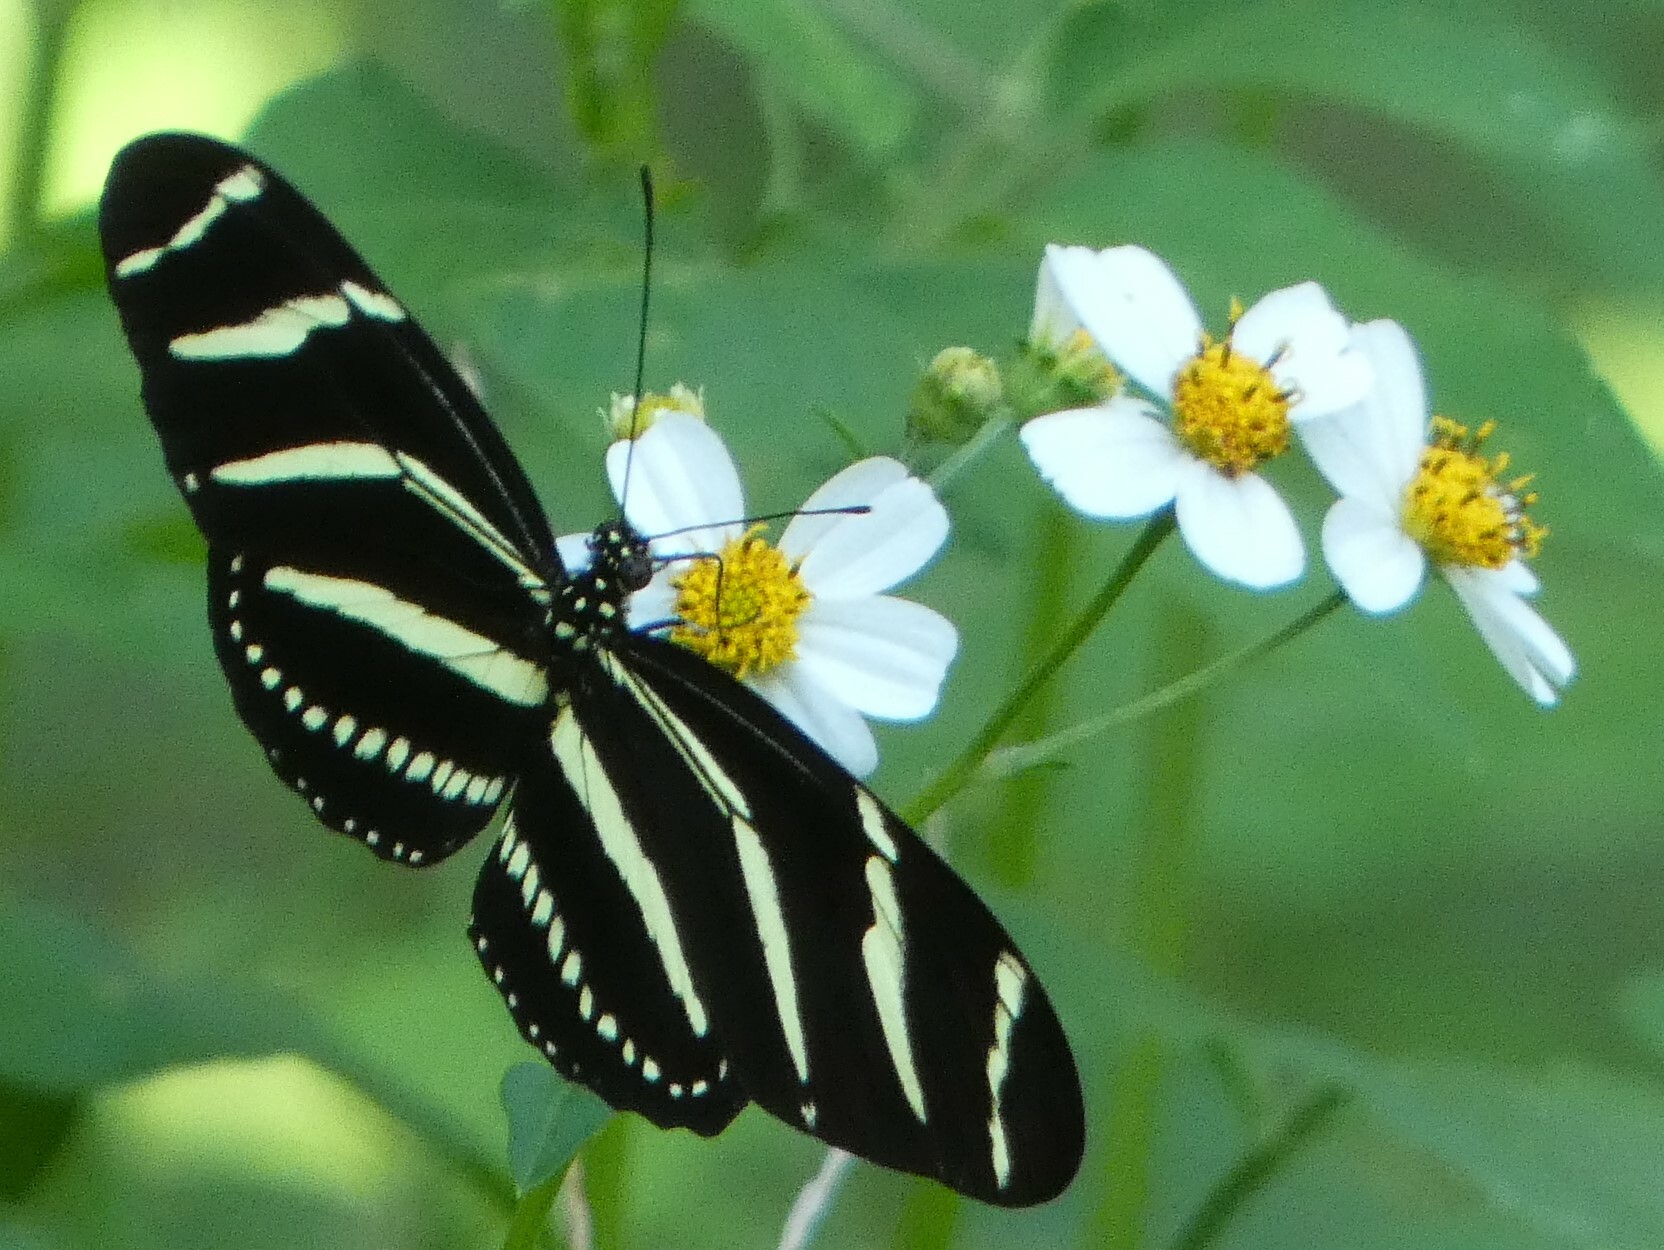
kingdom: Animalia
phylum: Arthropoda
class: Insecta
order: Lepidoptera
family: Nymphalidae
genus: Heliconius
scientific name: Heliconius charithonia
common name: Zebra long wing
